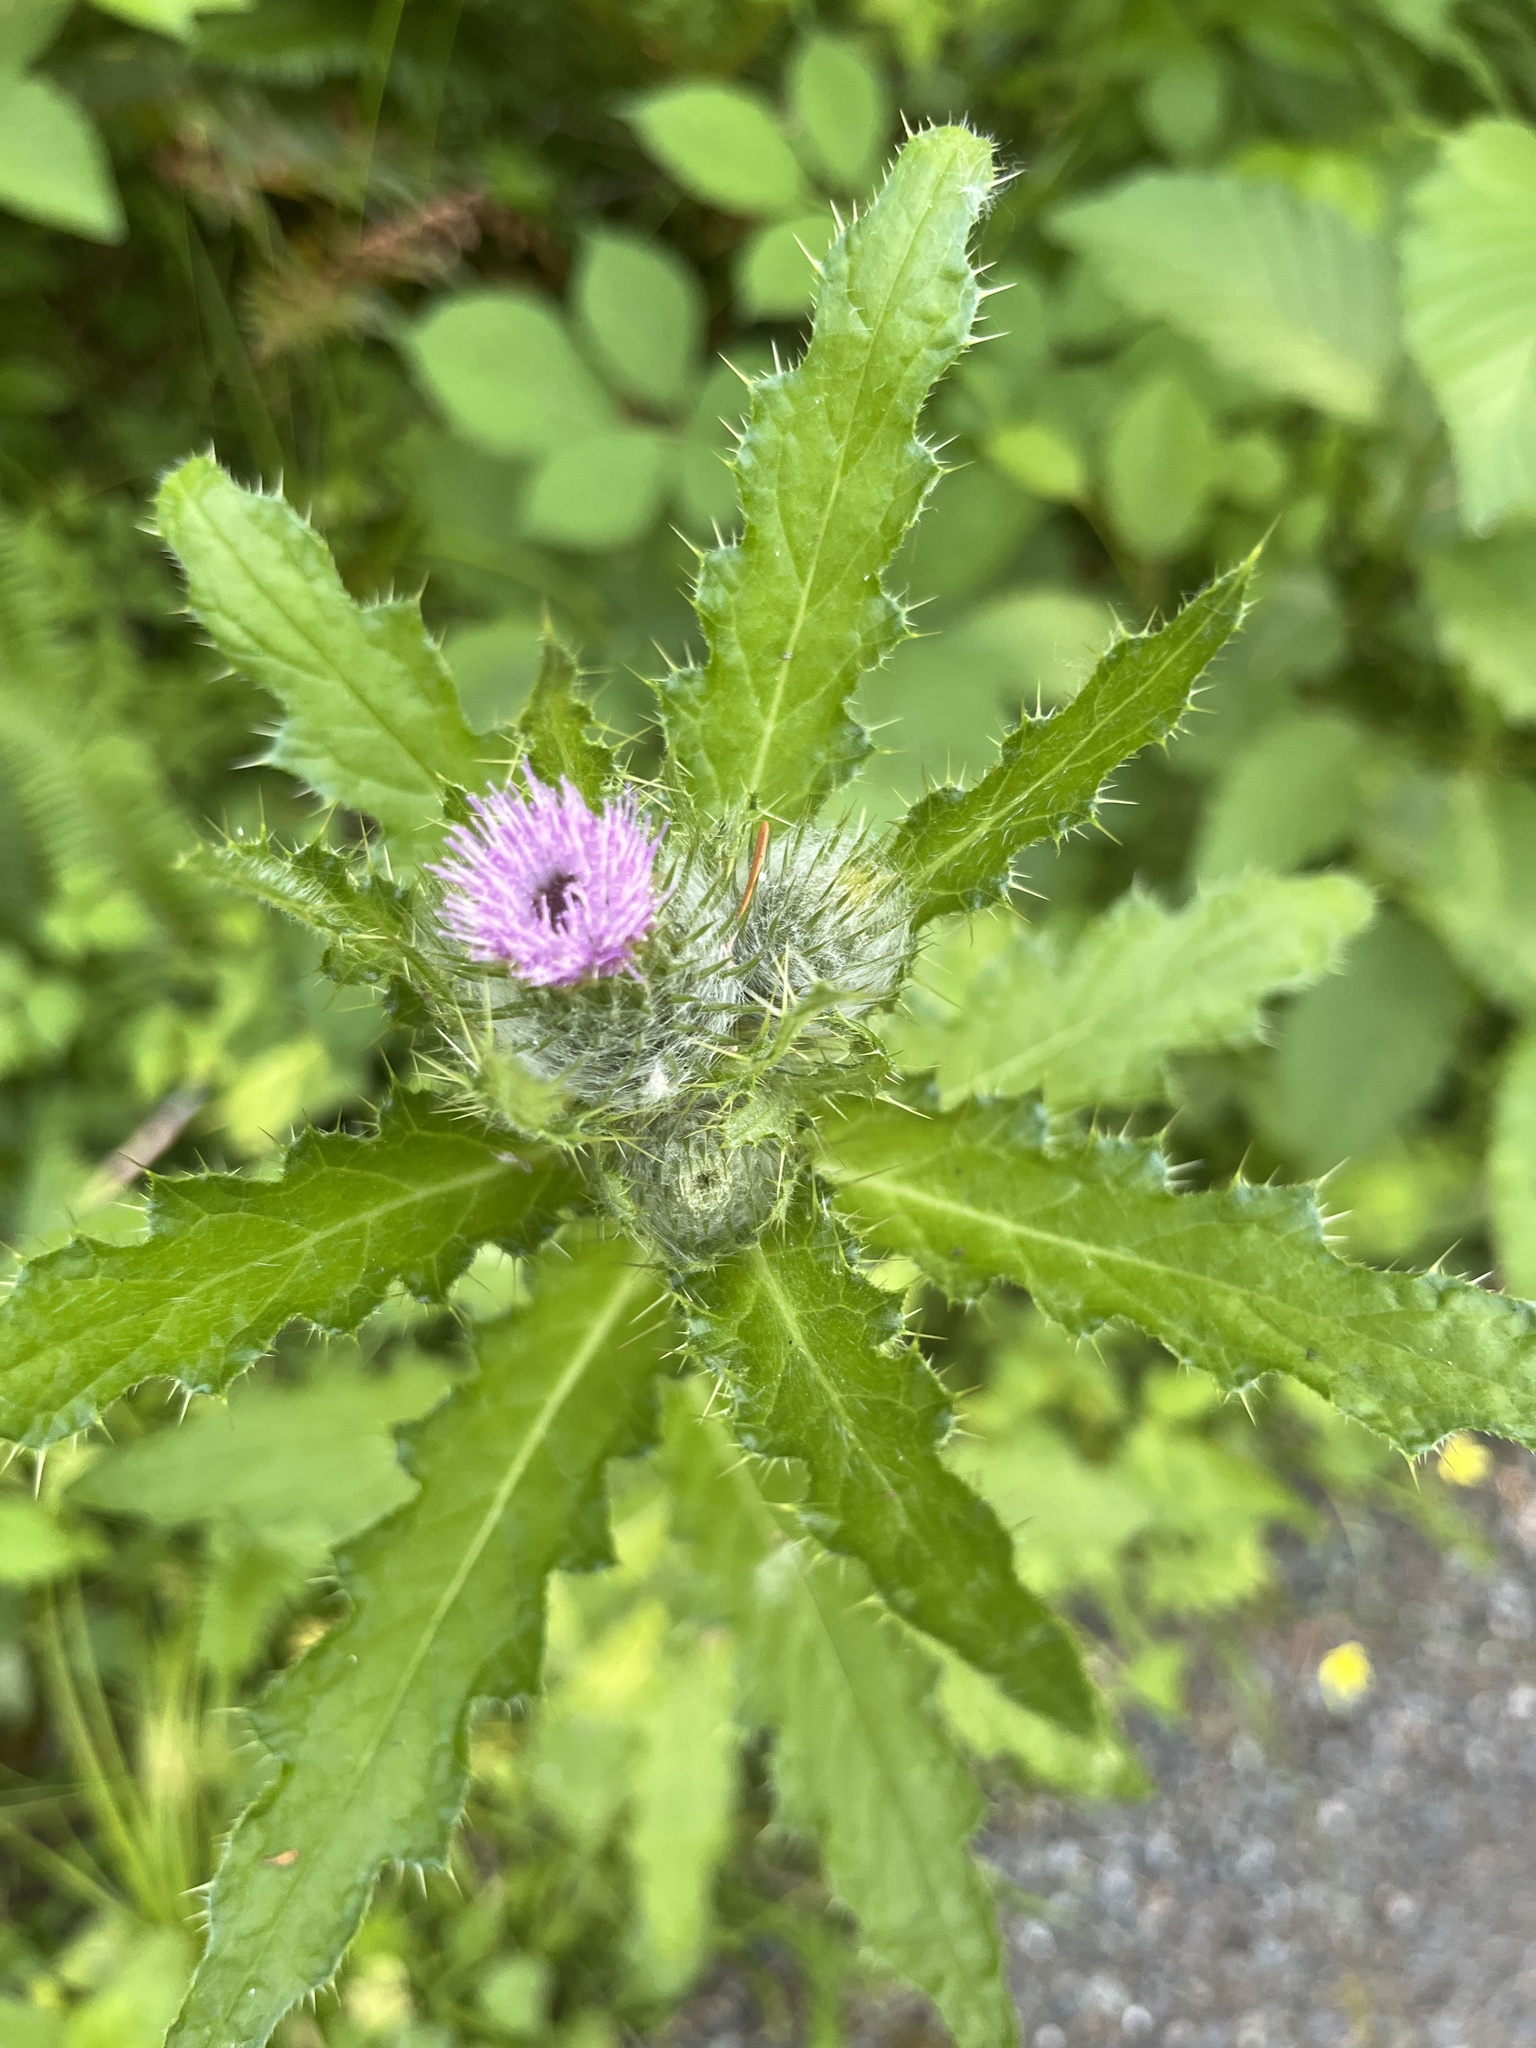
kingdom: Plantae
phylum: Tracheophyta
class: Magnoliopsida
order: Asterales
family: Asteraceae
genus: Cirsium
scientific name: Cirsium brevistylum
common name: Indian thistle
